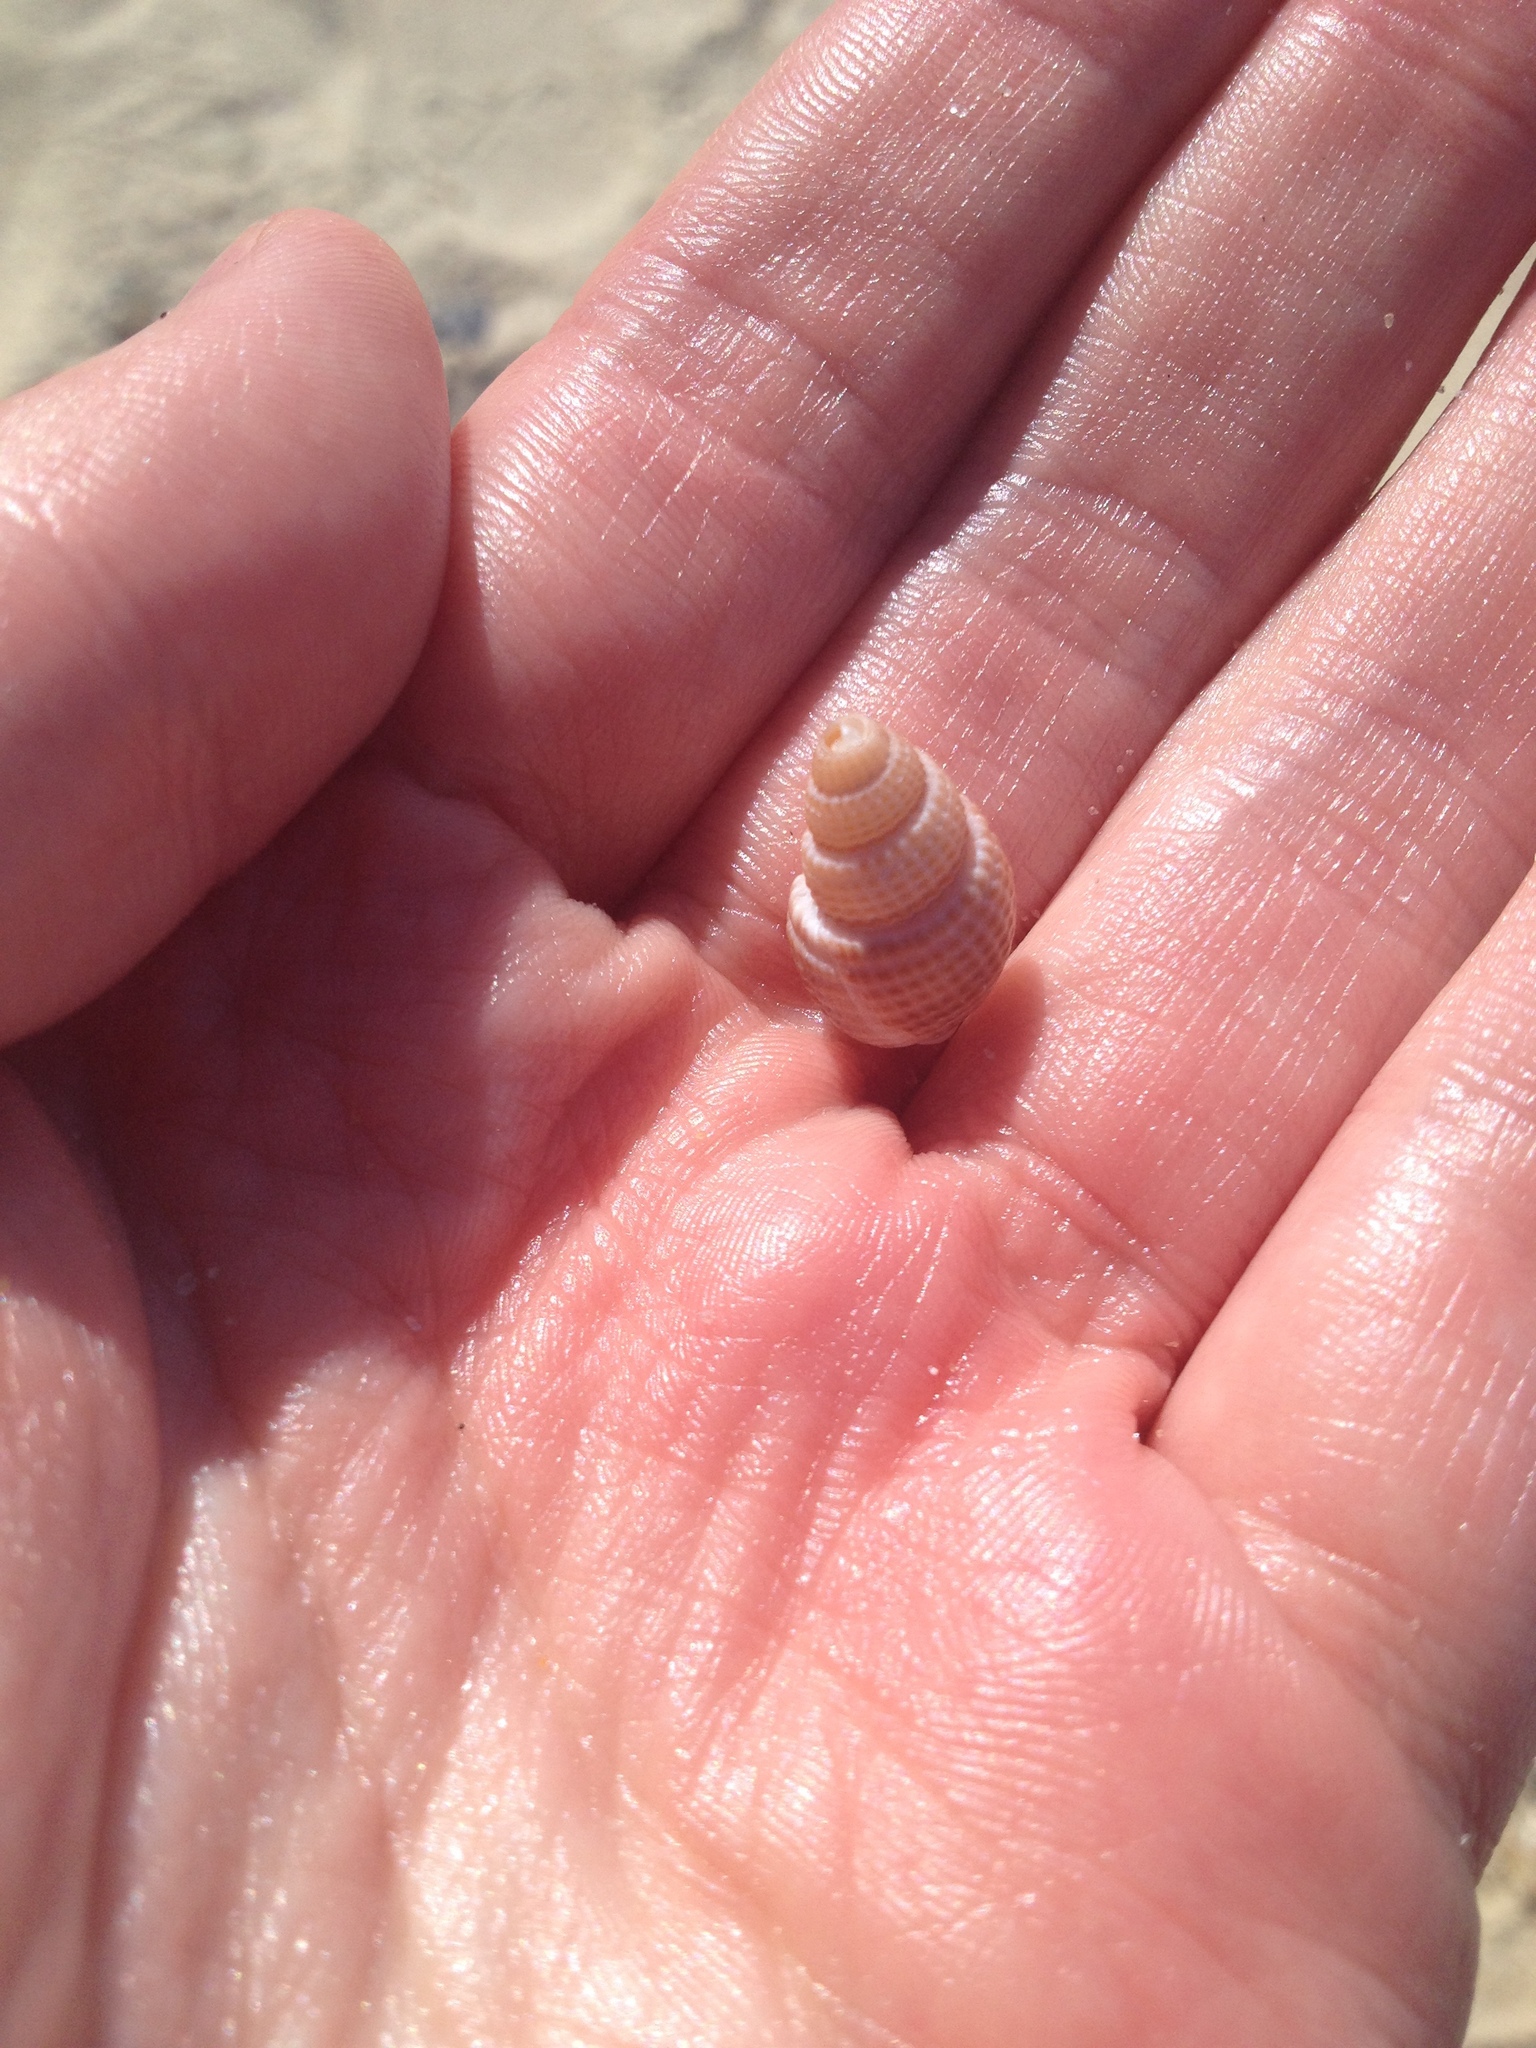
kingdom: Animalia
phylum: Mollusca
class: Gastropoda
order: Neogastropoda
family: Nassariidae
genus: Ilyanassa
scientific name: Ilyanassa trivittata
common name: Three-line mudsnail
